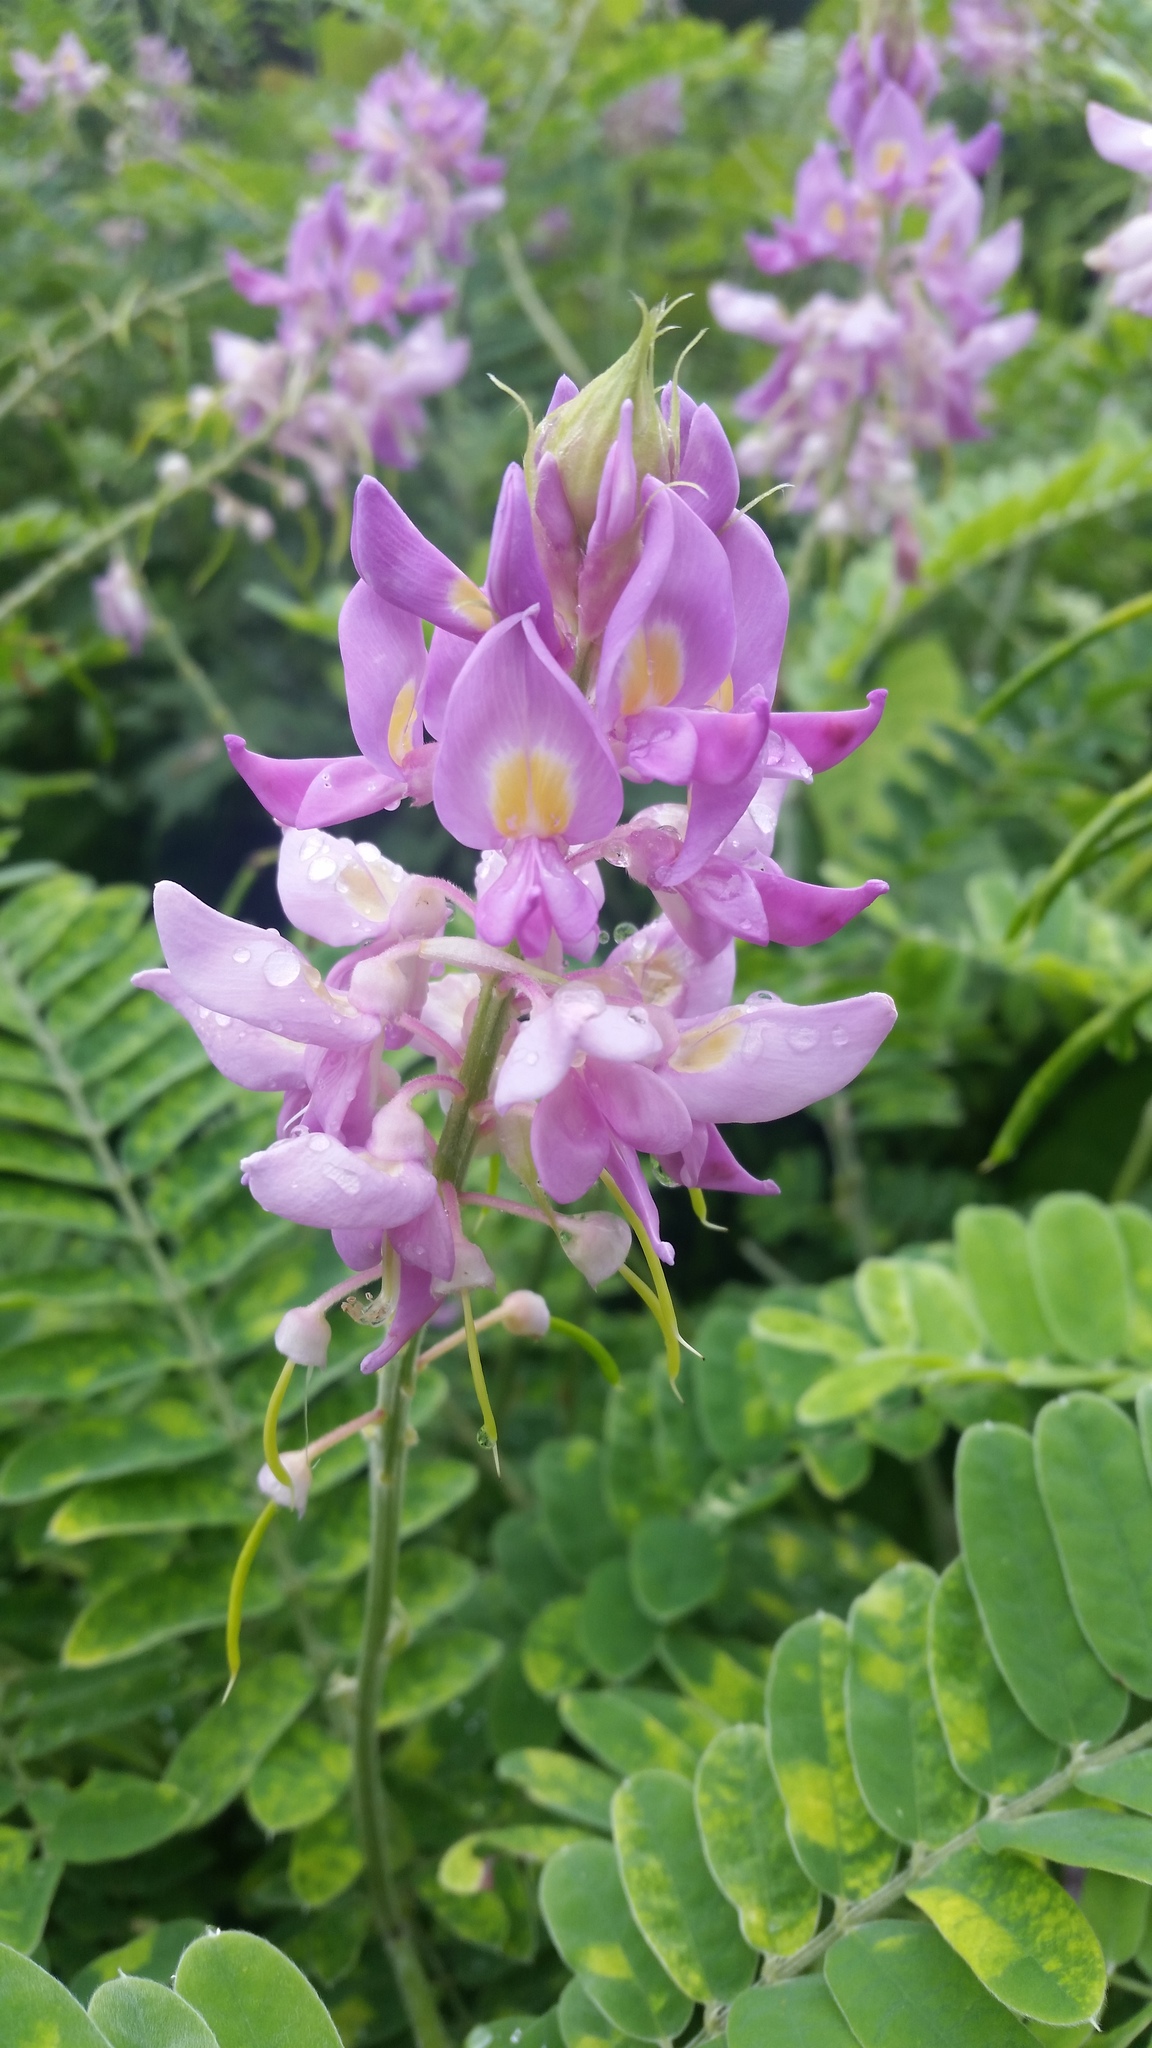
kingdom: Plantae
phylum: Tracheophyta
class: Magnoliopsida
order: Fabales
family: Fabaceae
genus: Sarcodum
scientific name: Sarcodum scandens
